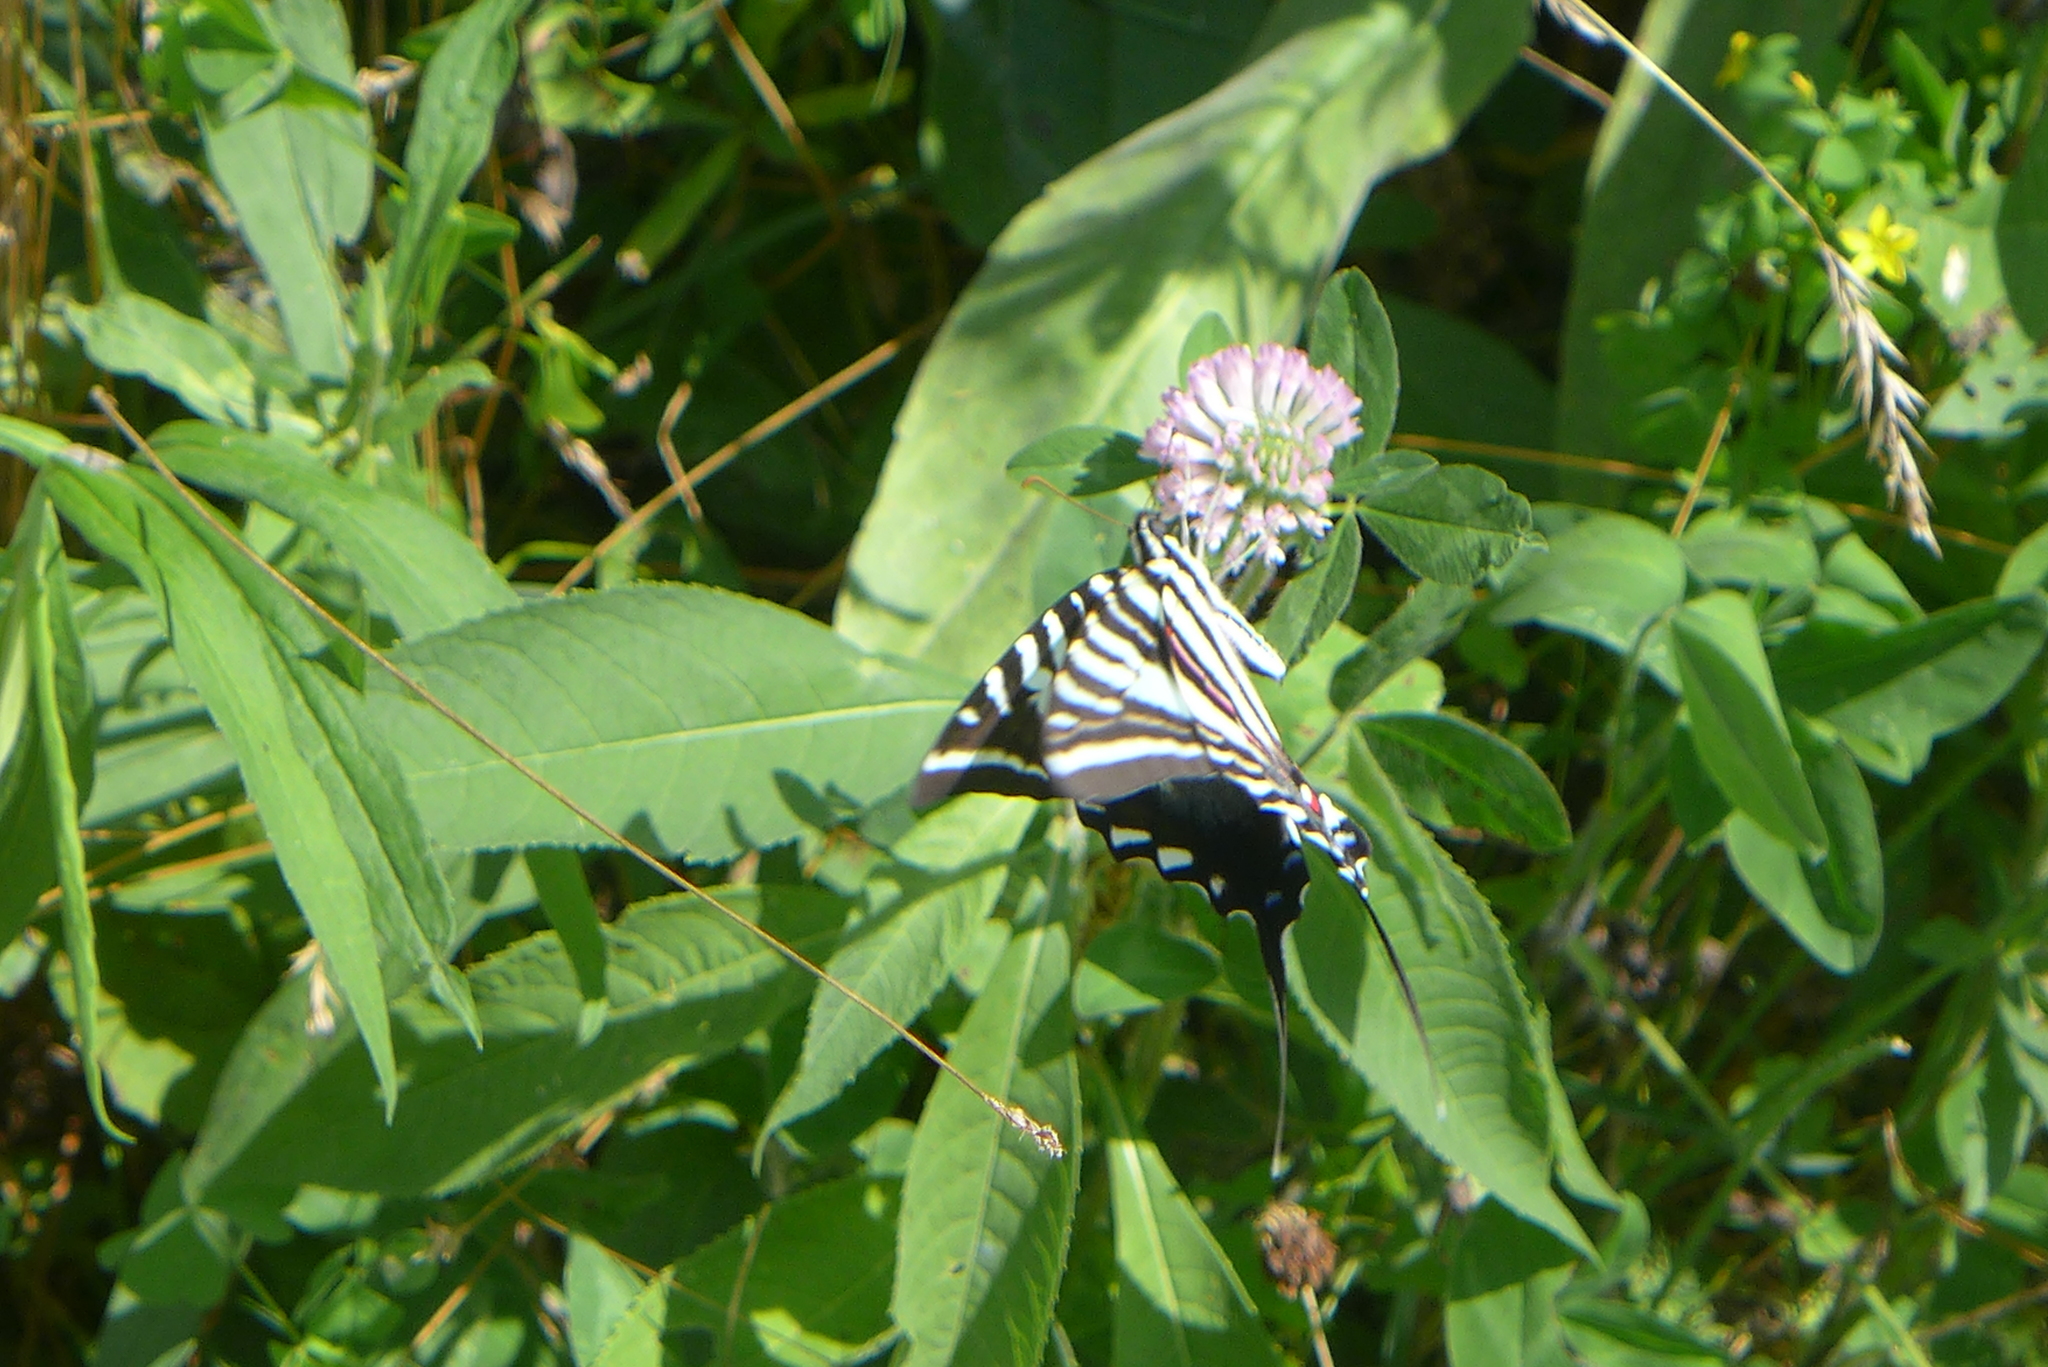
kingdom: Animalia
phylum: Arthropoda
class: Insecta
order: Lepidoptera
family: Papilionidae
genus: Protographium
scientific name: Protographium marcellus
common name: Zebra swallowtail
